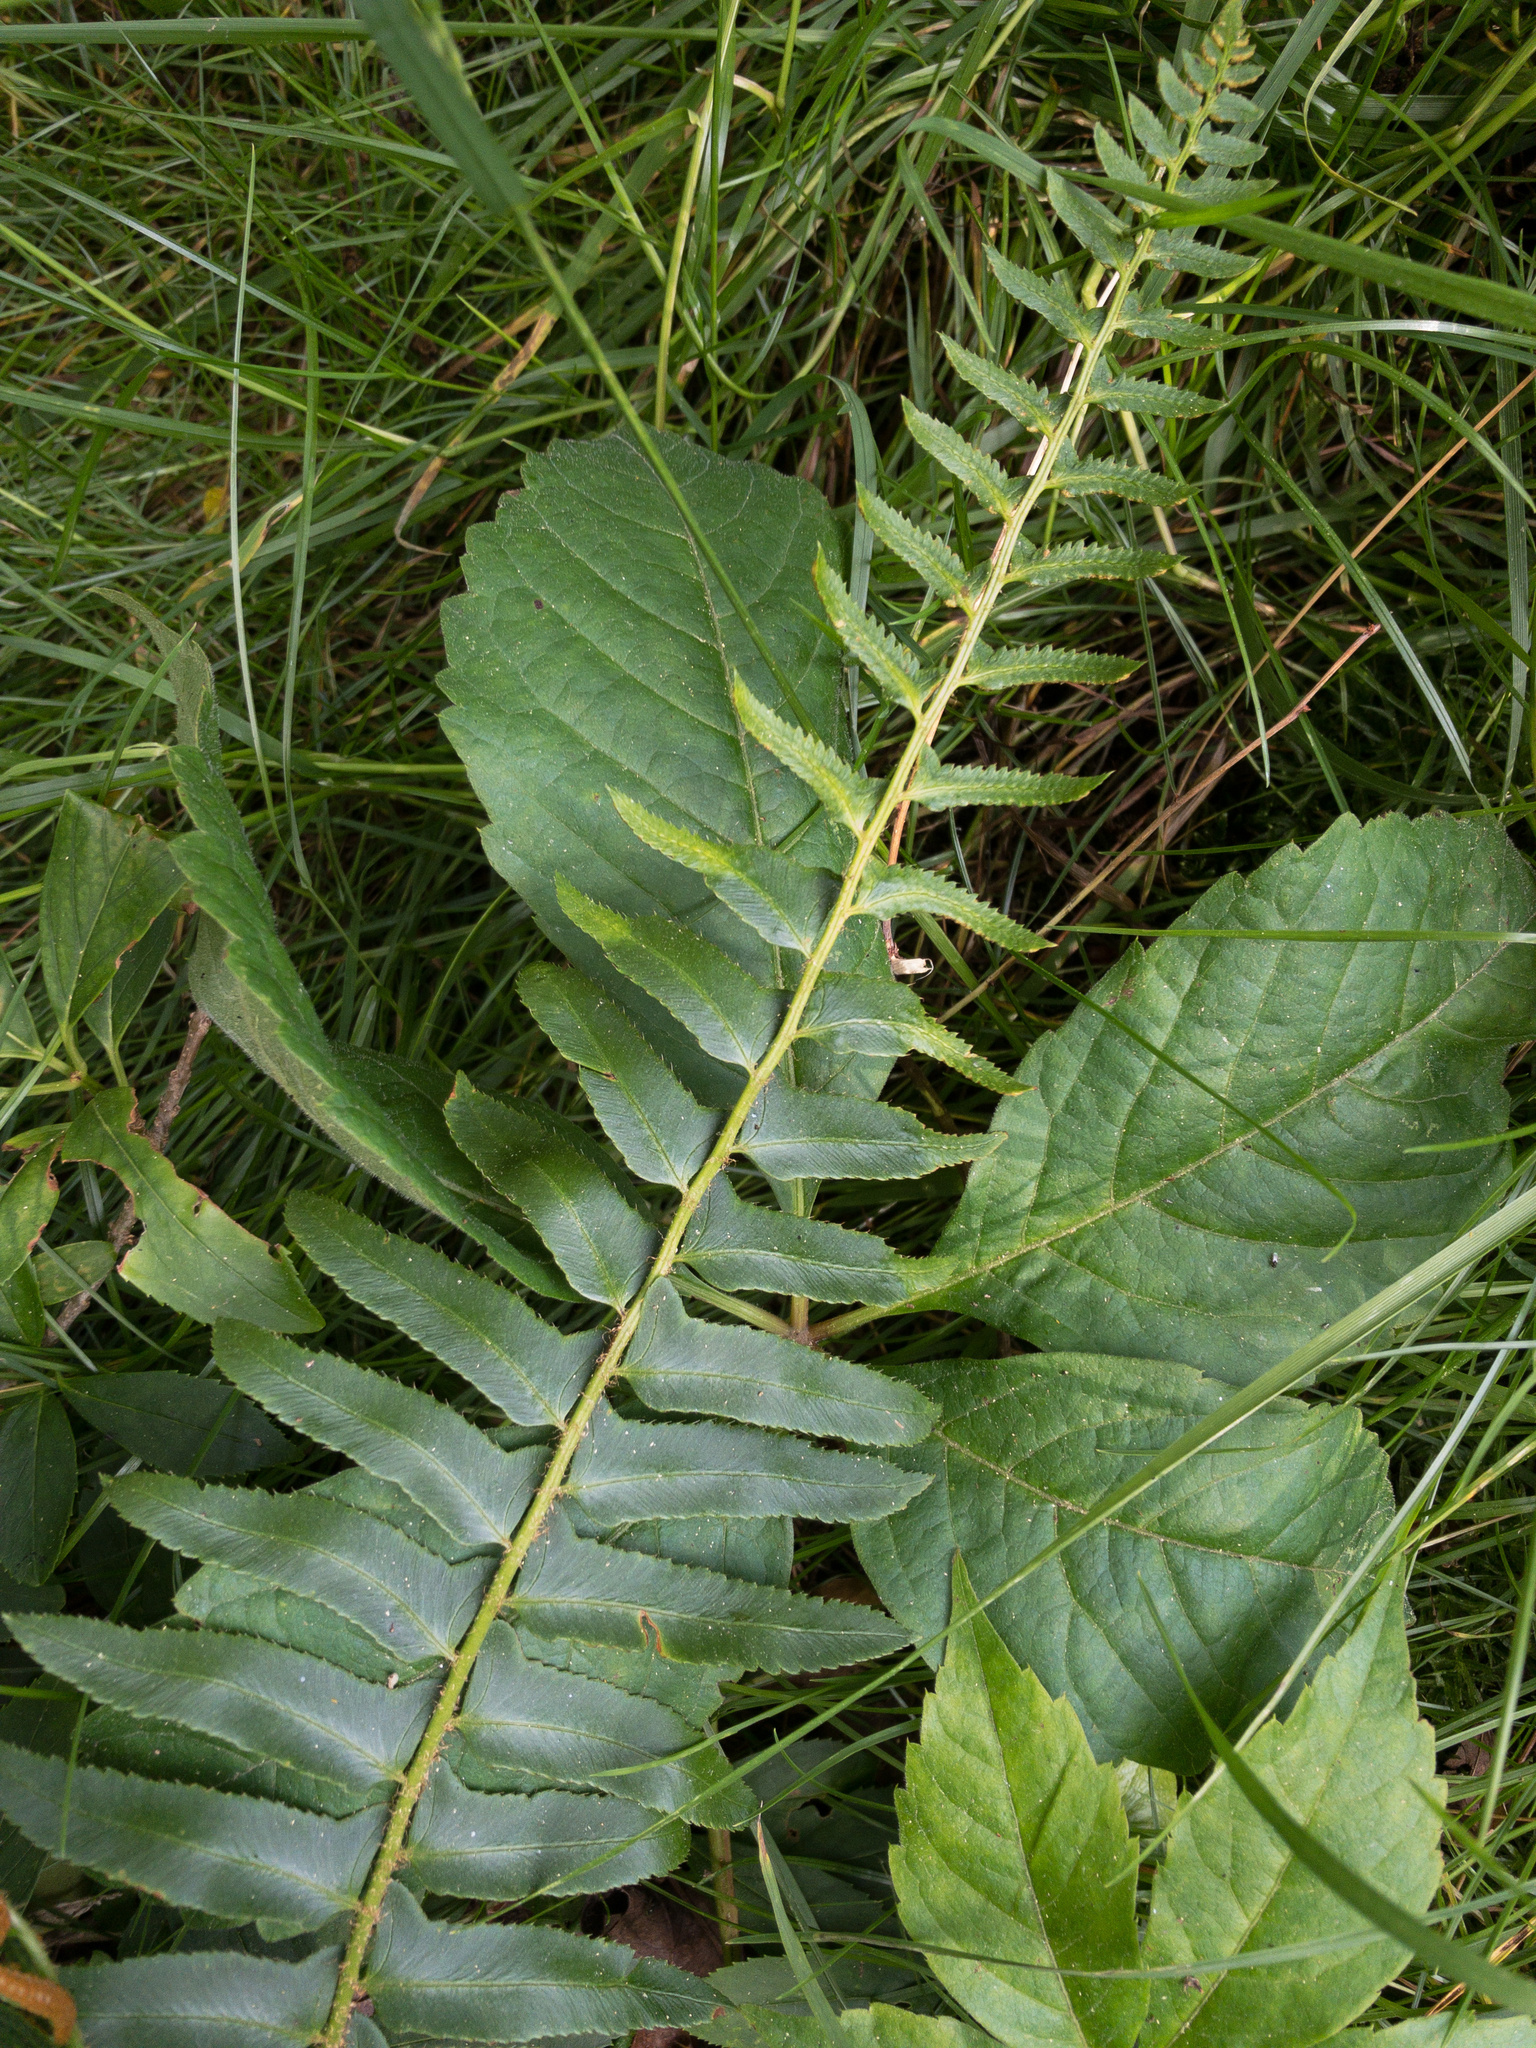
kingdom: Plantae
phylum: Tracheophyta
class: Polypodiopsida
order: Polypodiales
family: Dryopteridaceae
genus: Polystichum
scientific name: Polystichum acrostichoides
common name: Christmas fern
